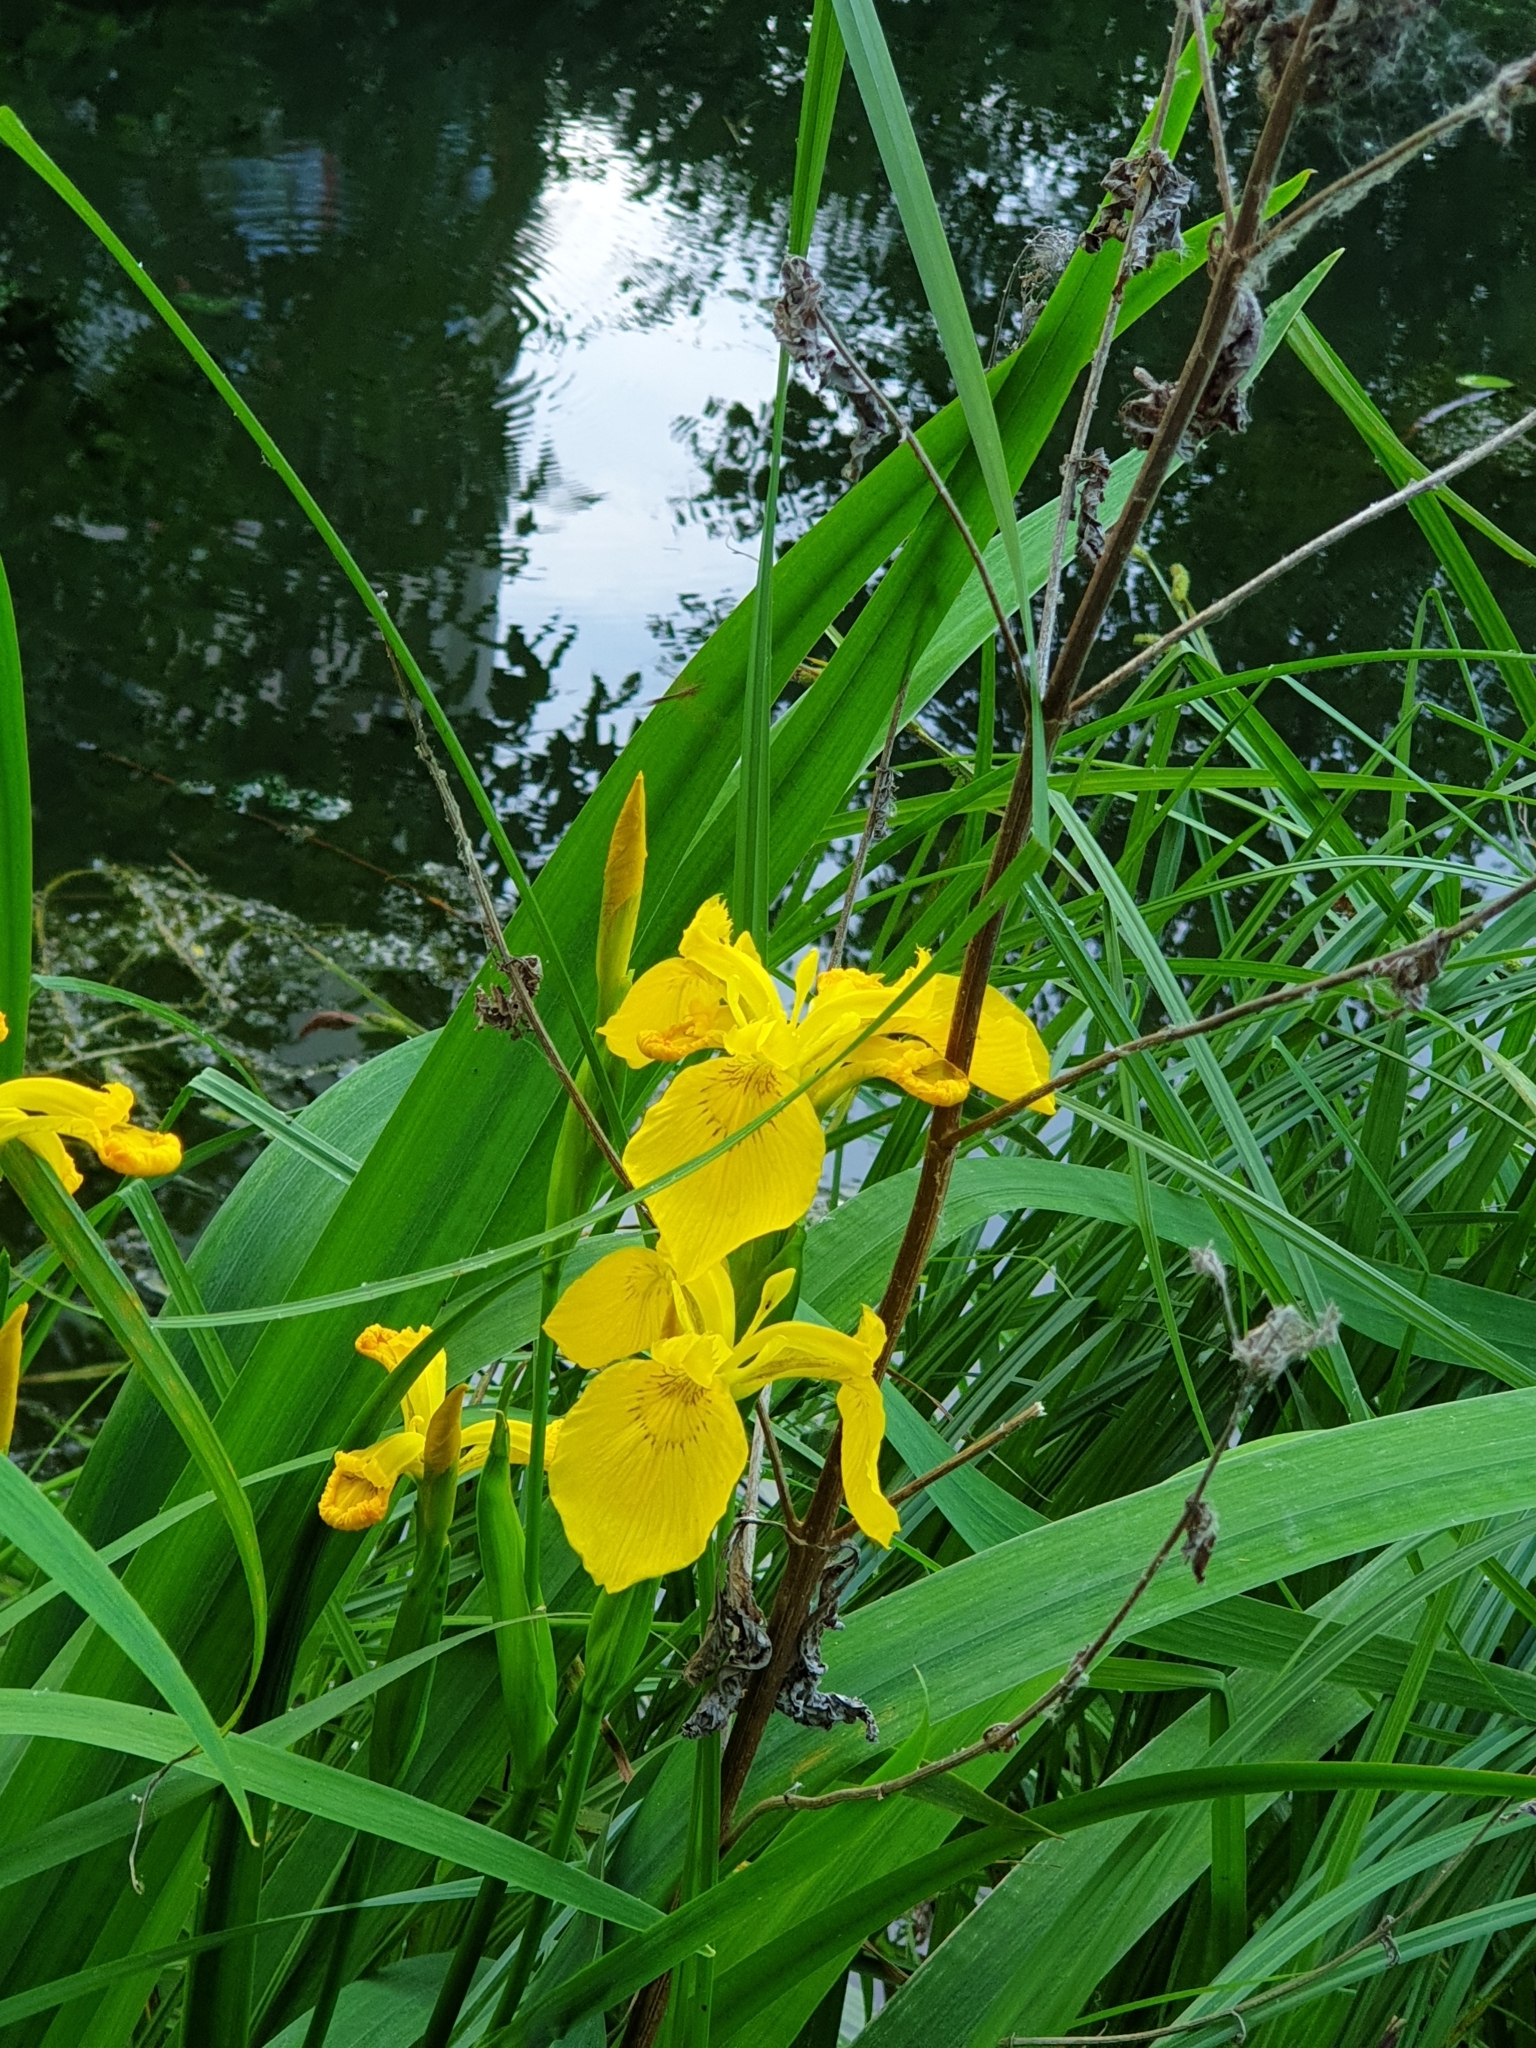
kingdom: Plantae
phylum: Tracheophyta
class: Liliopsida
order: Asparagales
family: Iridaceae
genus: Iris
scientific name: Iris pseudacorus
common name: Yellow flag
